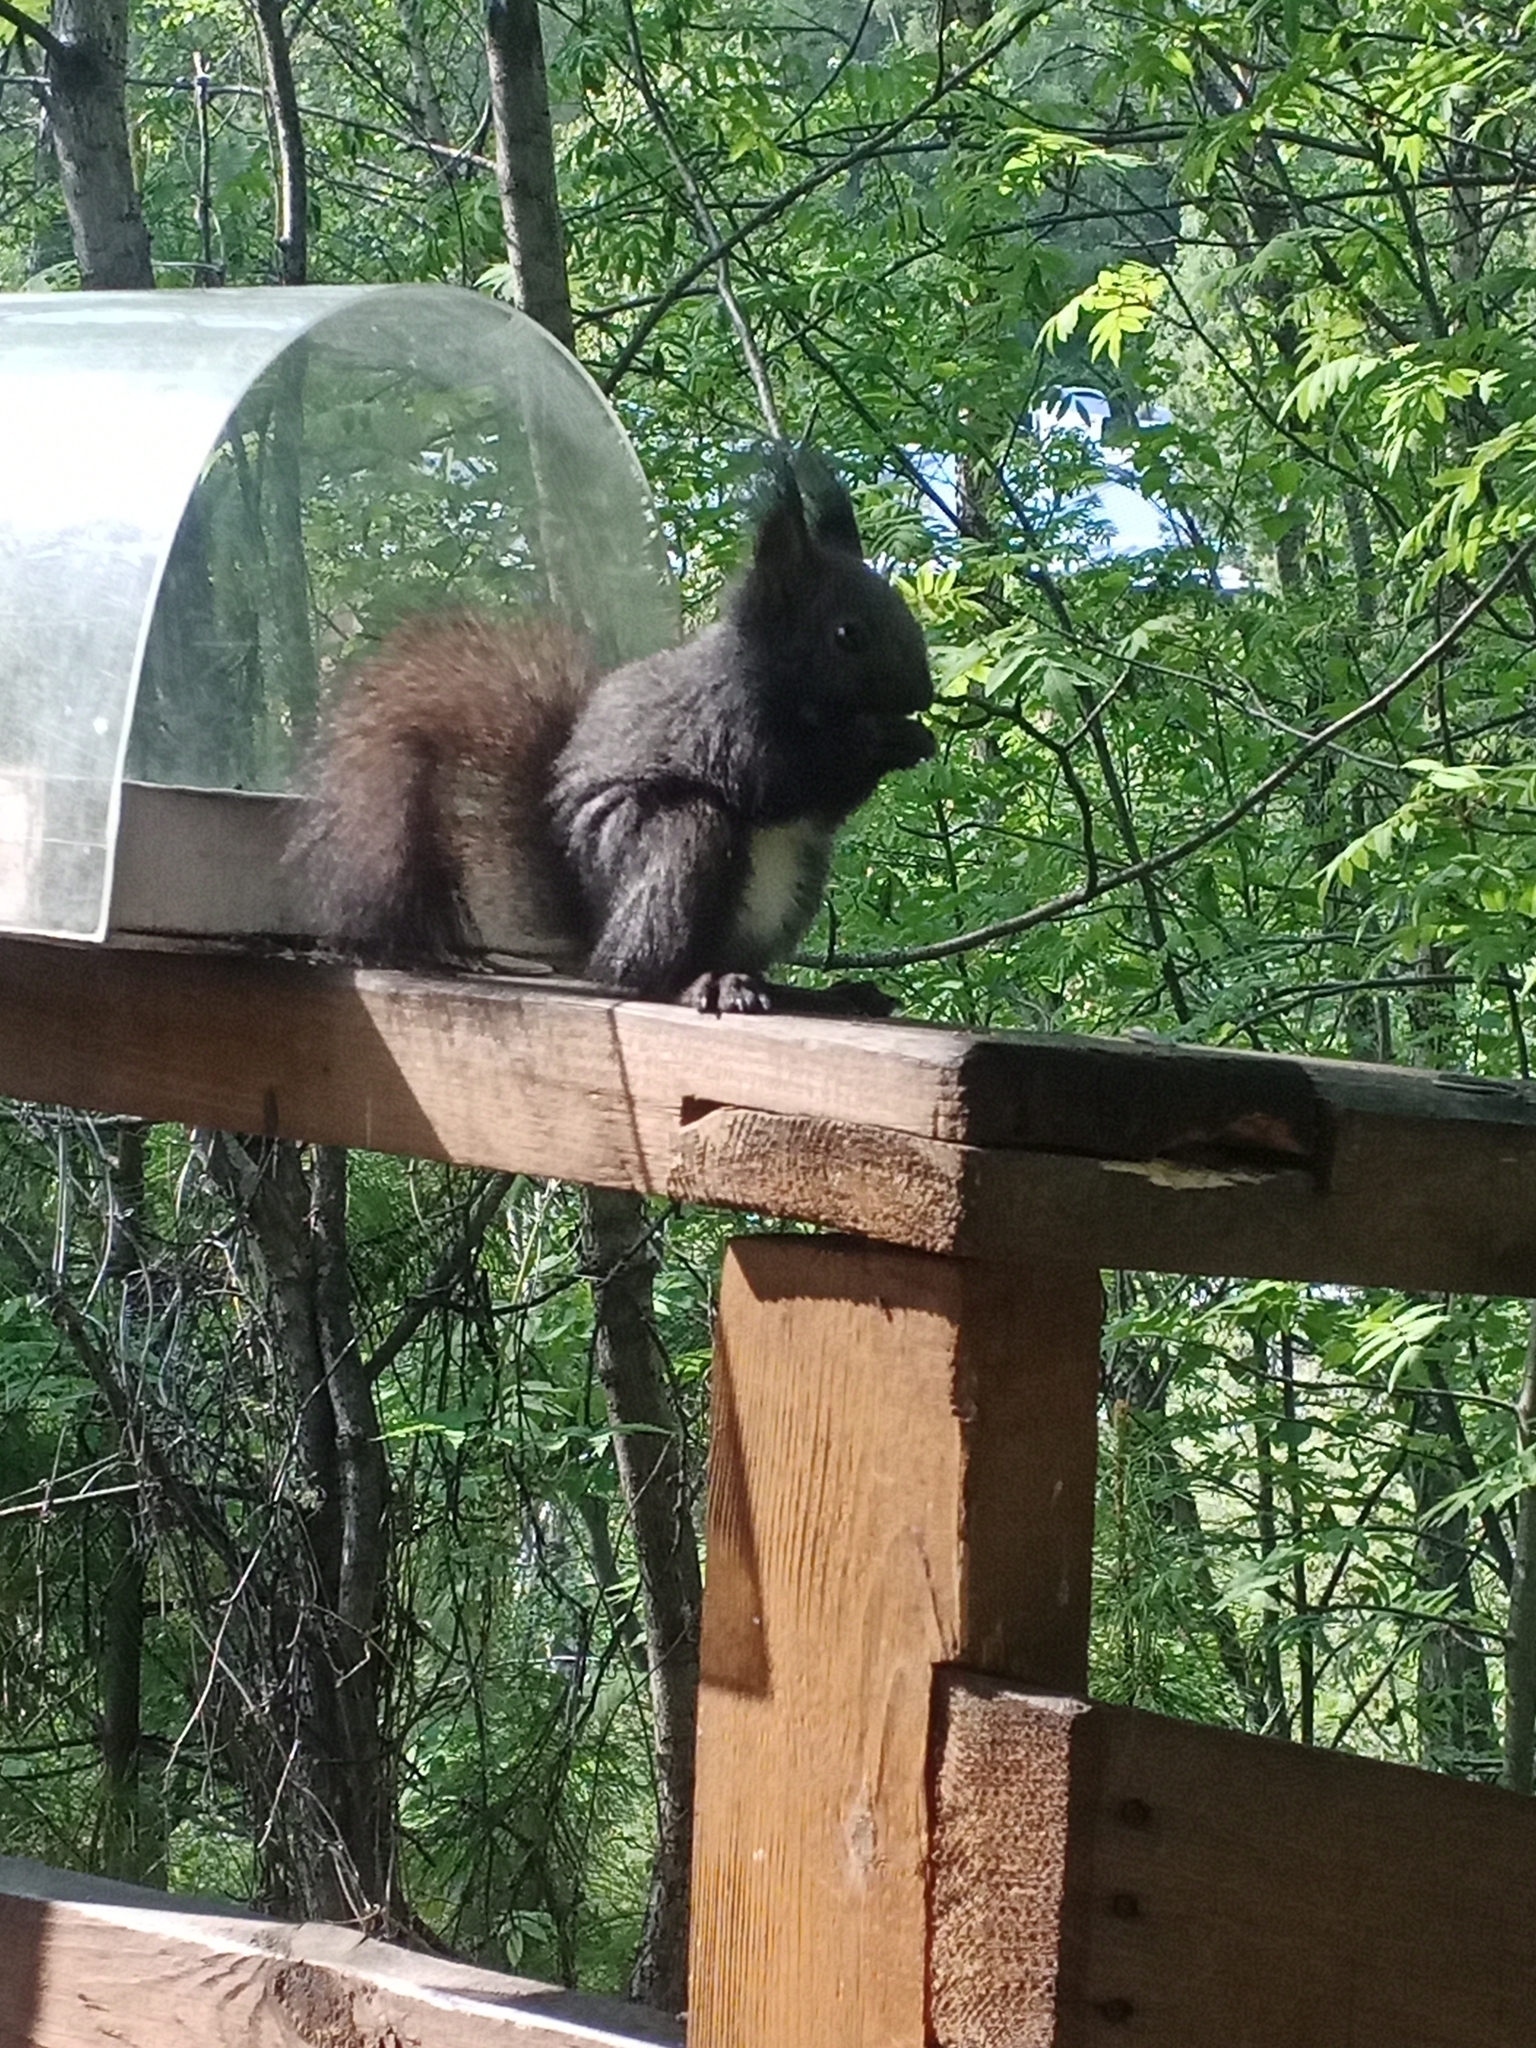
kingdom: Animalia
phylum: Chordata
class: Mammalia
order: Rodentia
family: Sciuridae
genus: Sciurus
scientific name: Sciurus vulgaris
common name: Eurasian red squirrel
